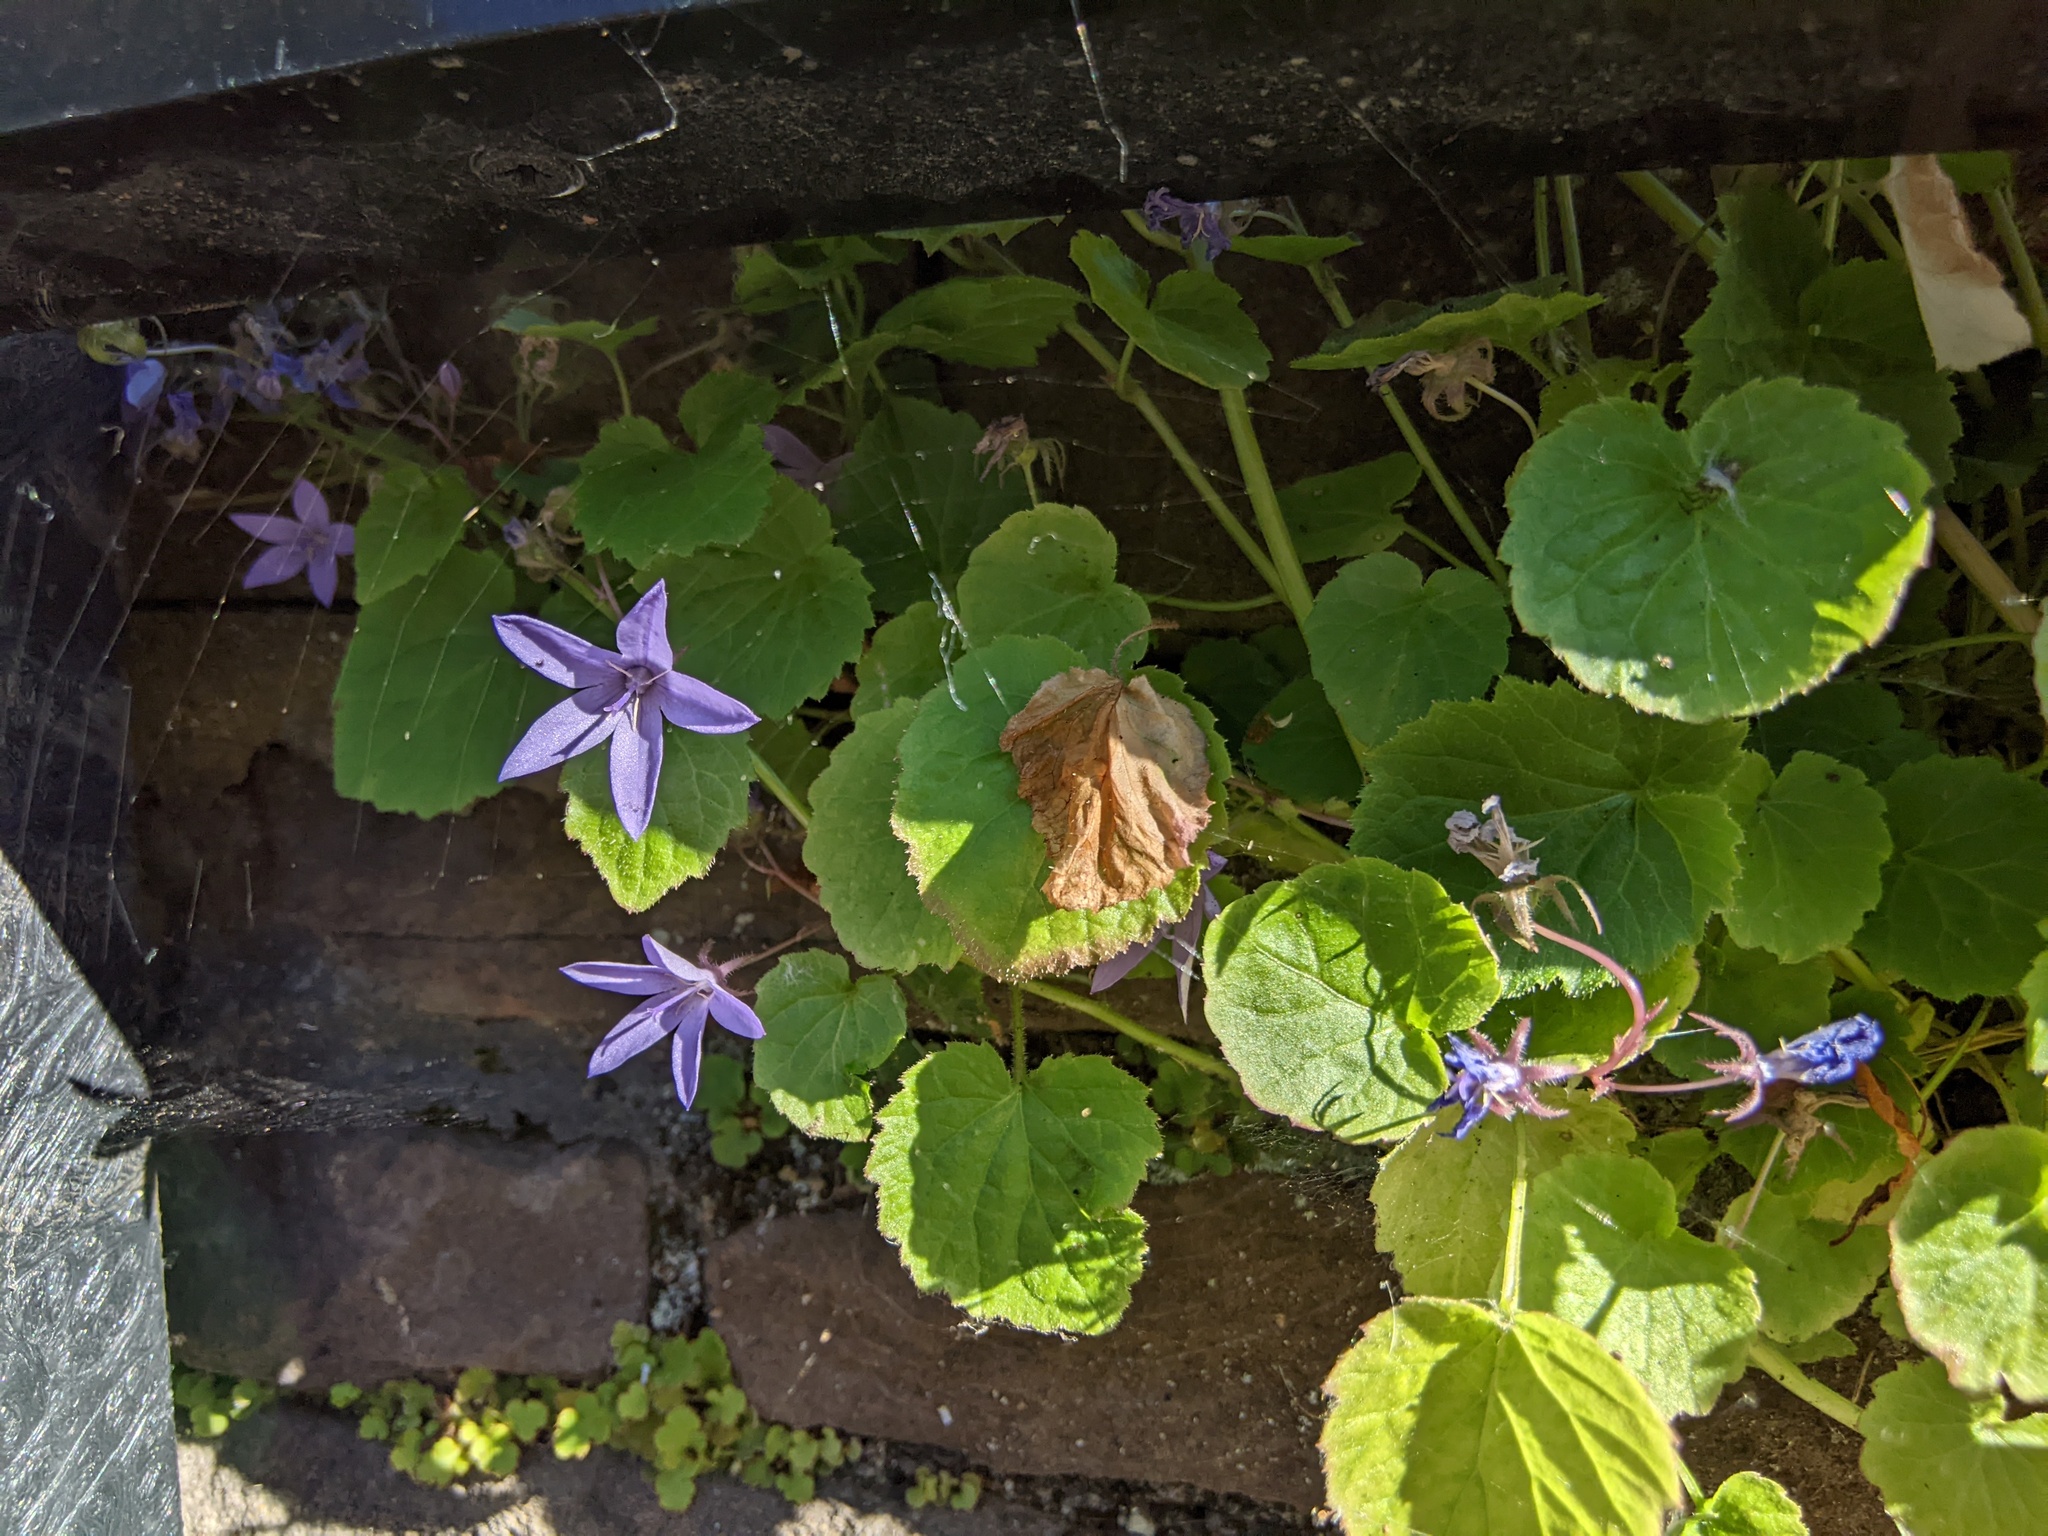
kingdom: Plantae
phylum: Tracheophyta
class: Magnoliopsida
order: Asterales
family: Campanulaceae
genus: Campanula
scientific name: Campanula poscharskyana
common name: Trailing bellflower
